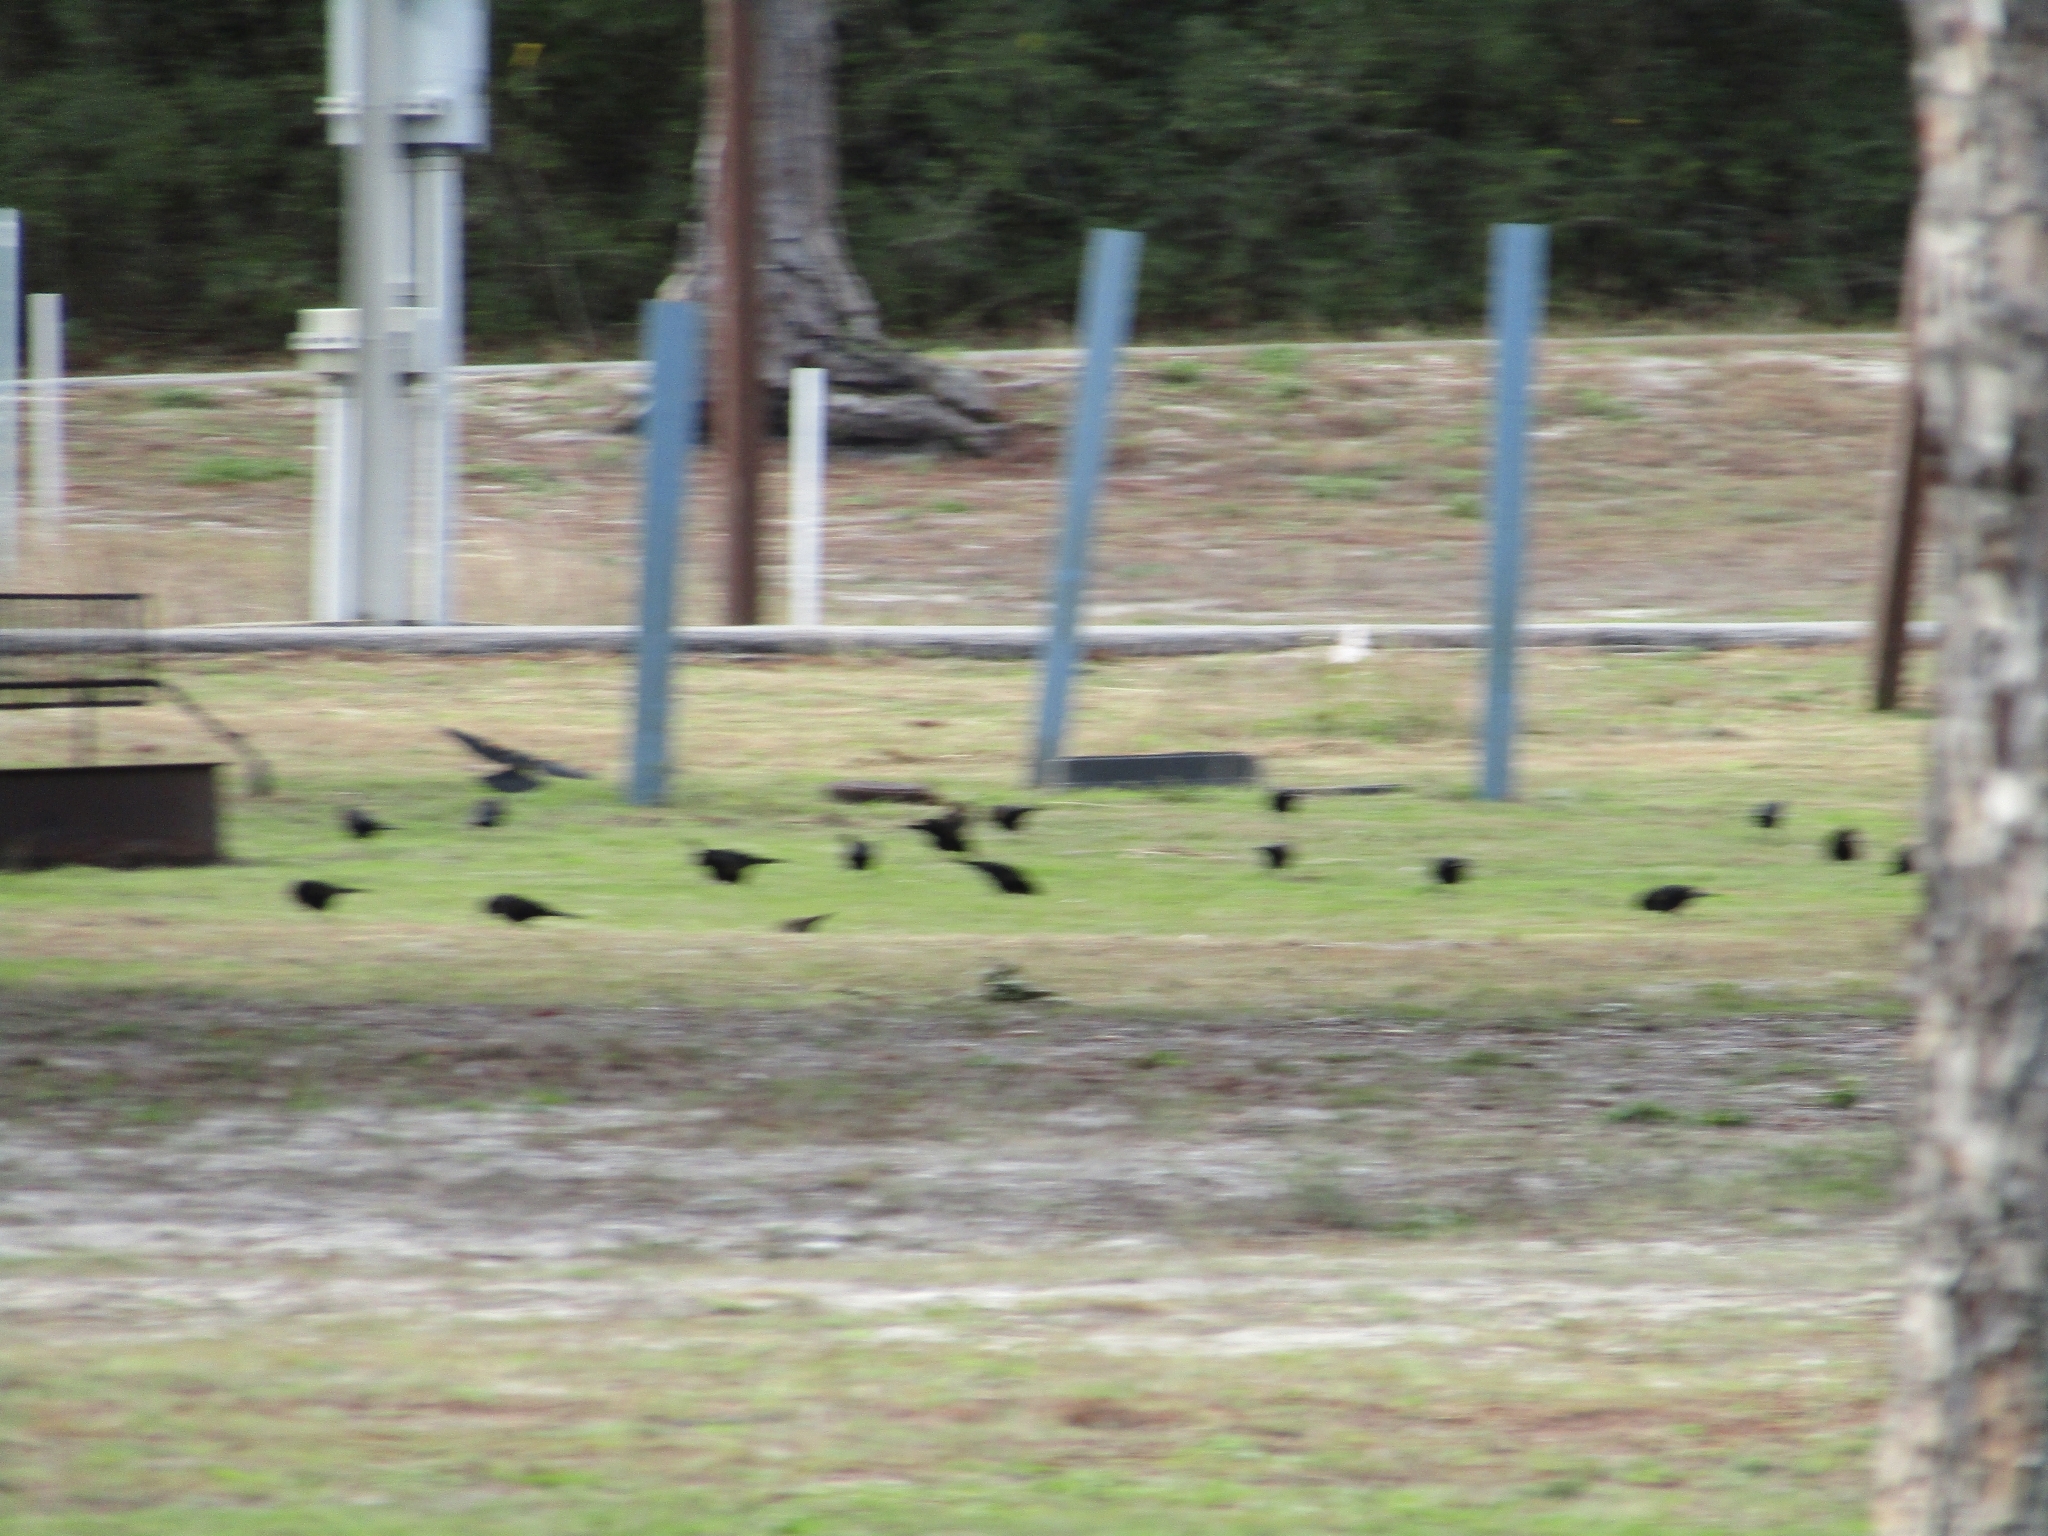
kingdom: Animalia
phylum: Chordata
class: Aves
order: Passeriformes
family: Icteridae
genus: Agelaius
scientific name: Agelaius phoeniceus
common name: Red-winged blackbird
